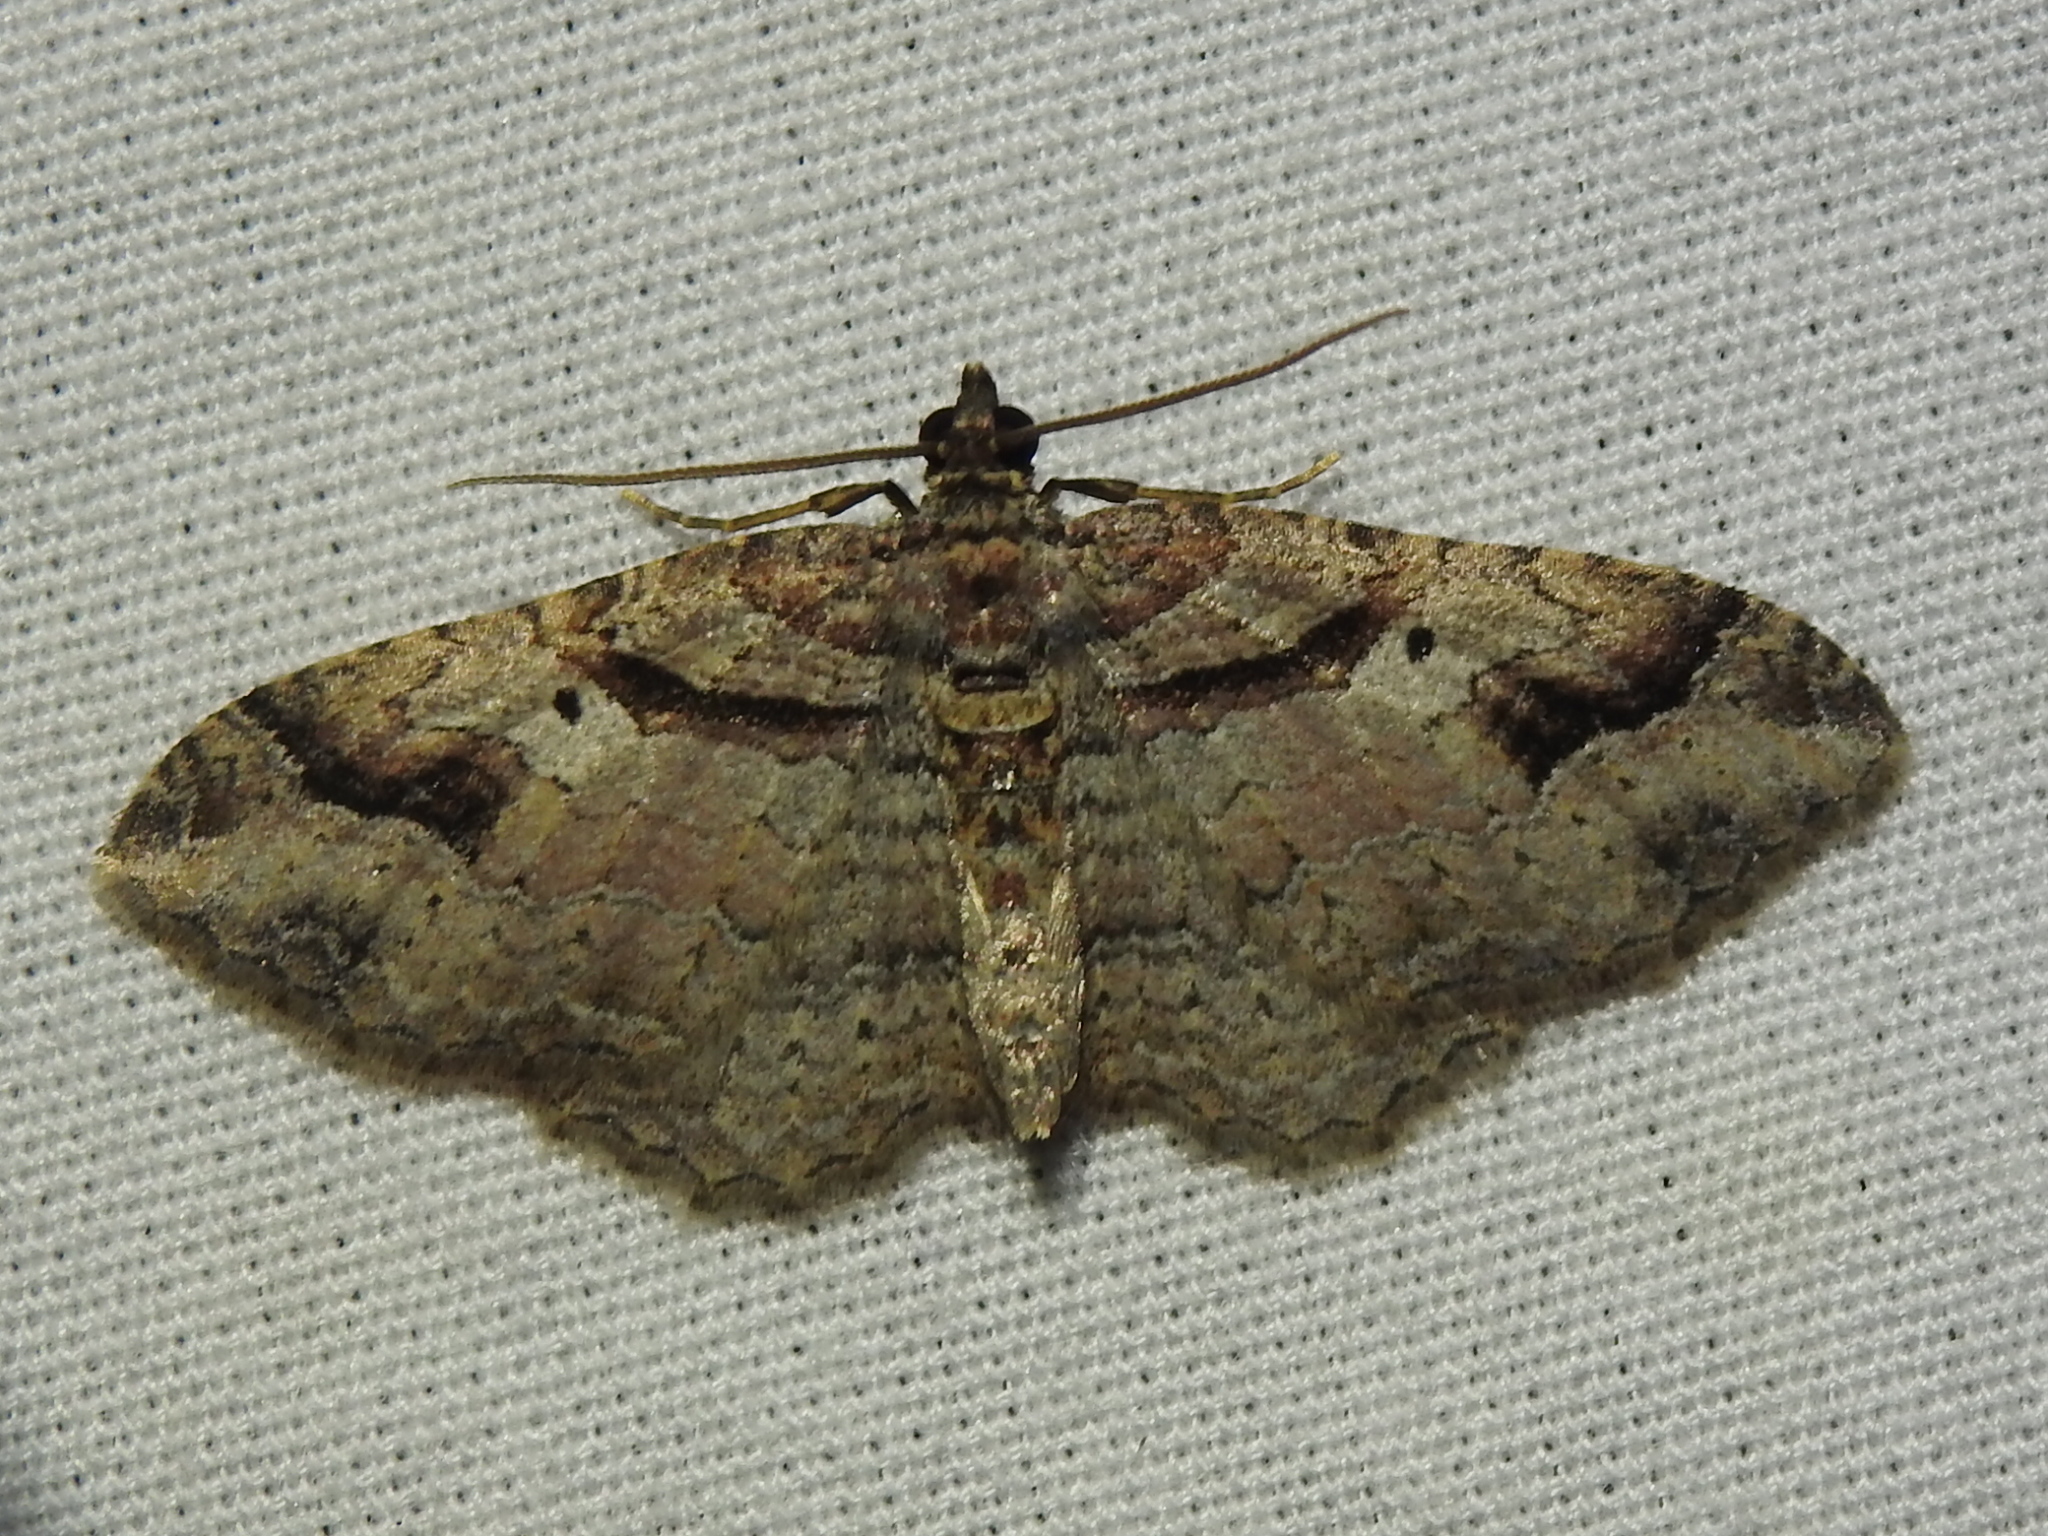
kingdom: Animalia
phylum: Arthropoda
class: Insecta
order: Lepidoptera
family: Geometridae
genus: Costaconvexa
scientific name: Costaconvexa centrostrigaria
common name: Bent-line carpet
